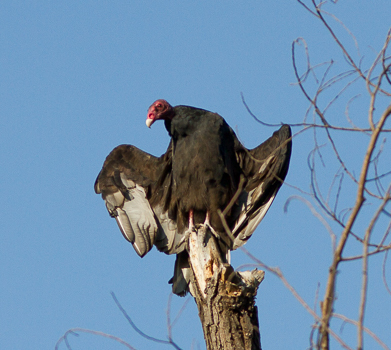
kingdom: Animalia
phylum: Chordata
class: Aves
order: Accipitriformes
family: Cathartidae
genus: Cathartes
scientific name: Cathartes aura
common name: Turkey vulture
